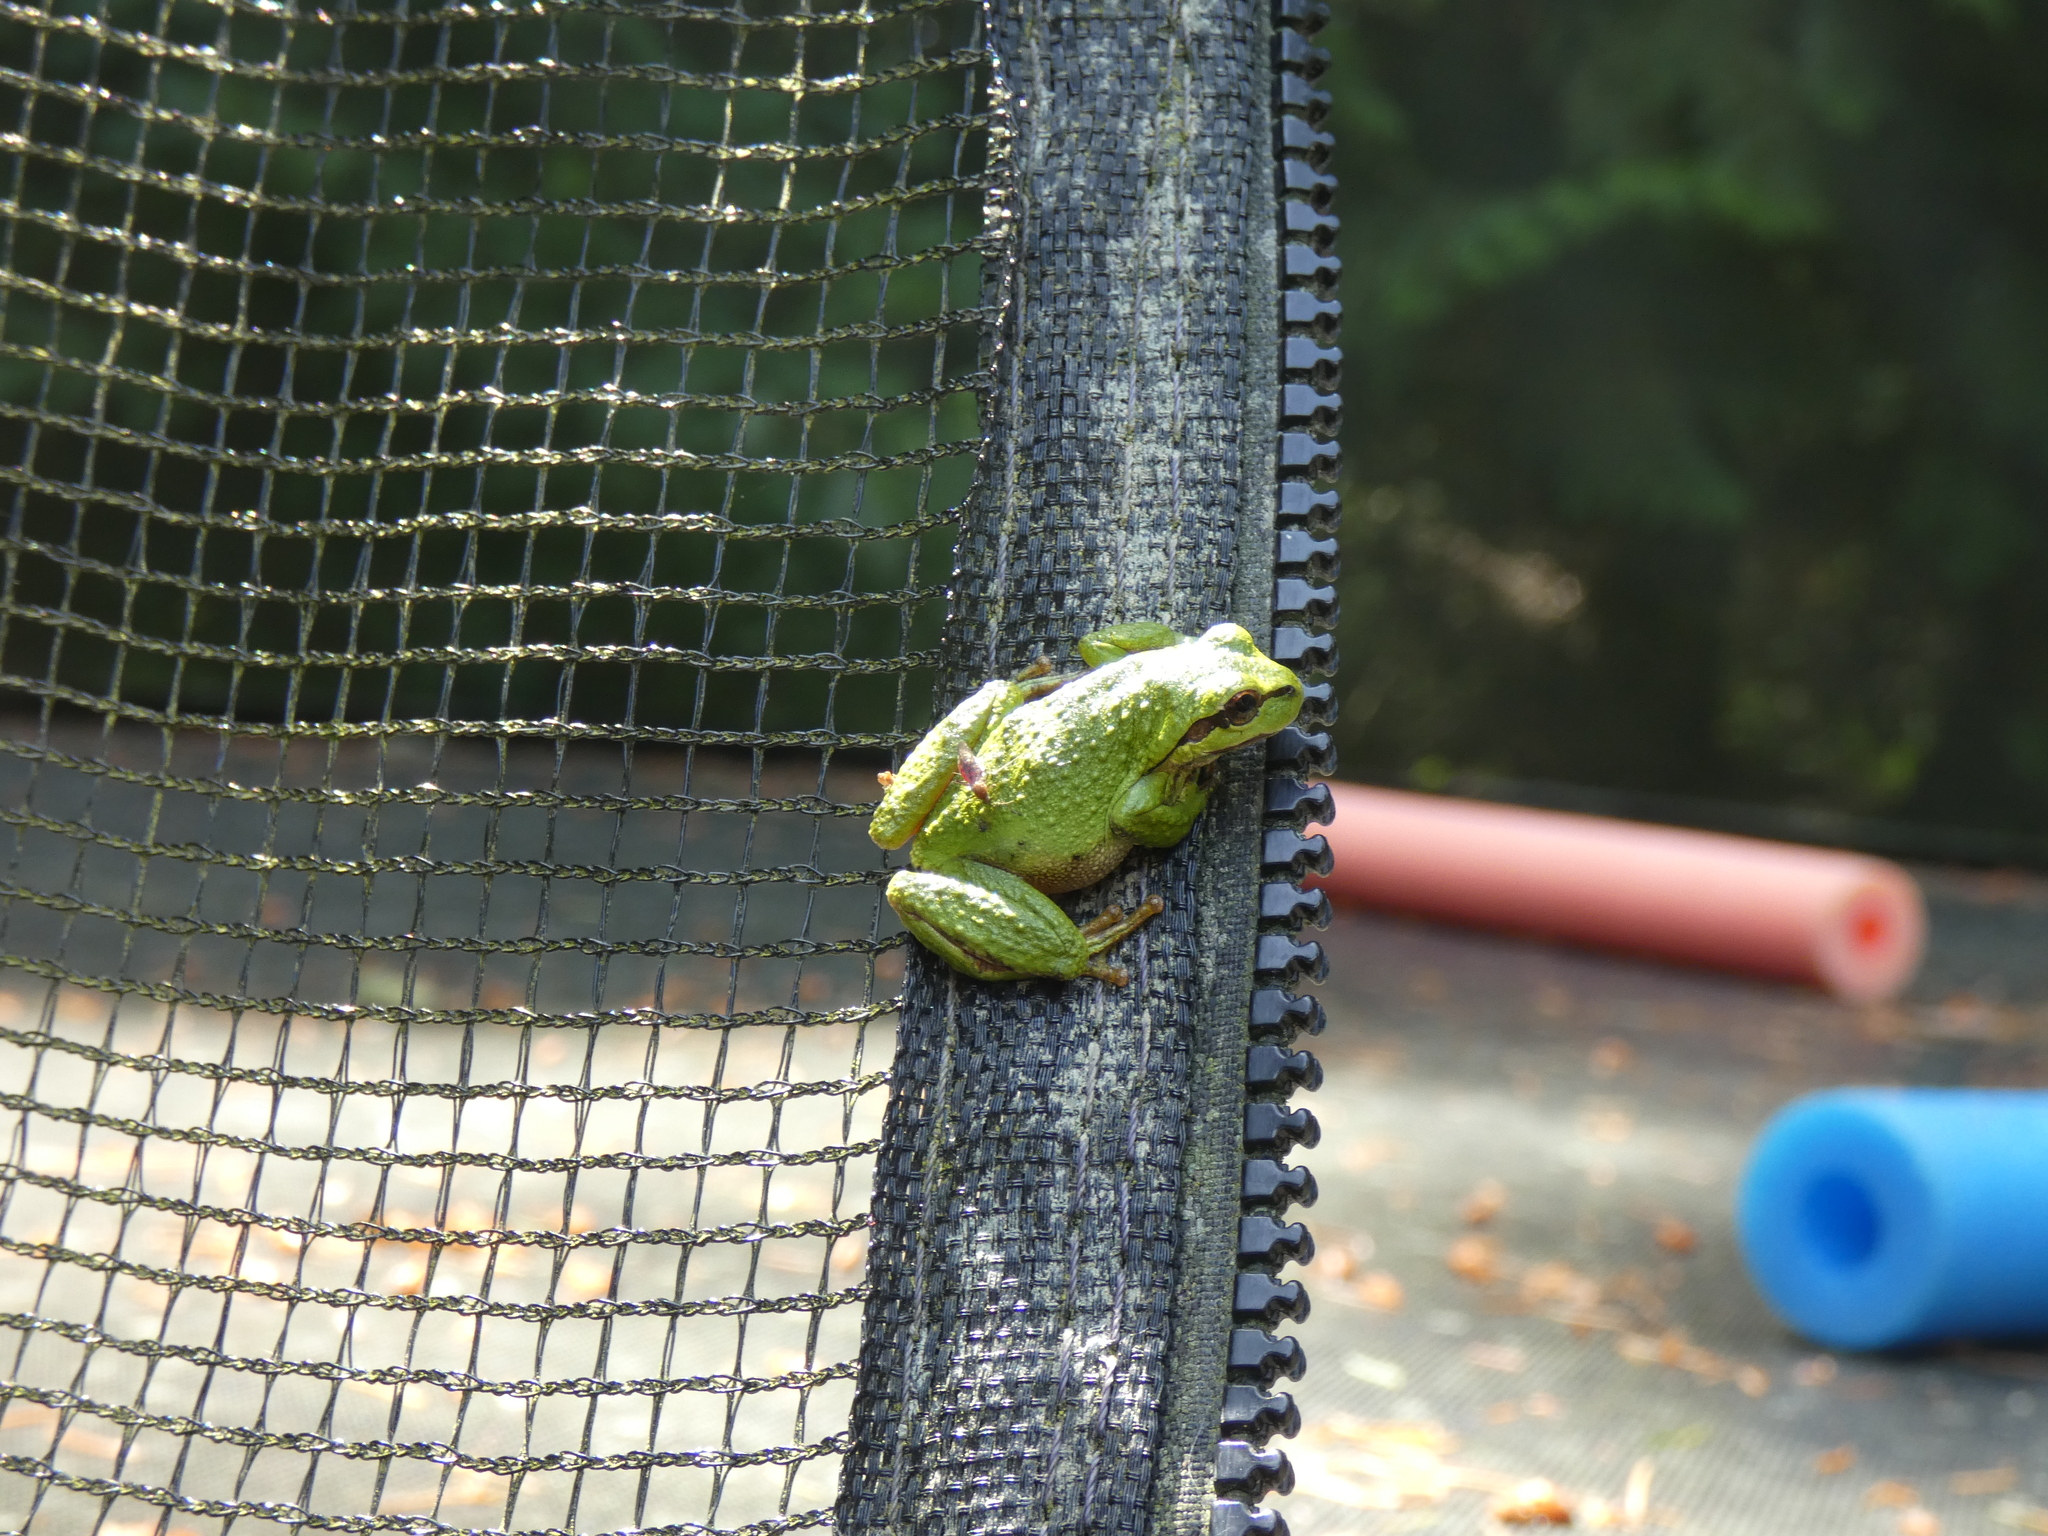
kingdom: Animalia
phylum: Chordata
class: Amphibia
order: Anura
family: Hylidae
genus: Pseudacris
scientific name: Pseudacris regilla
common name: Pacific chorus frog
